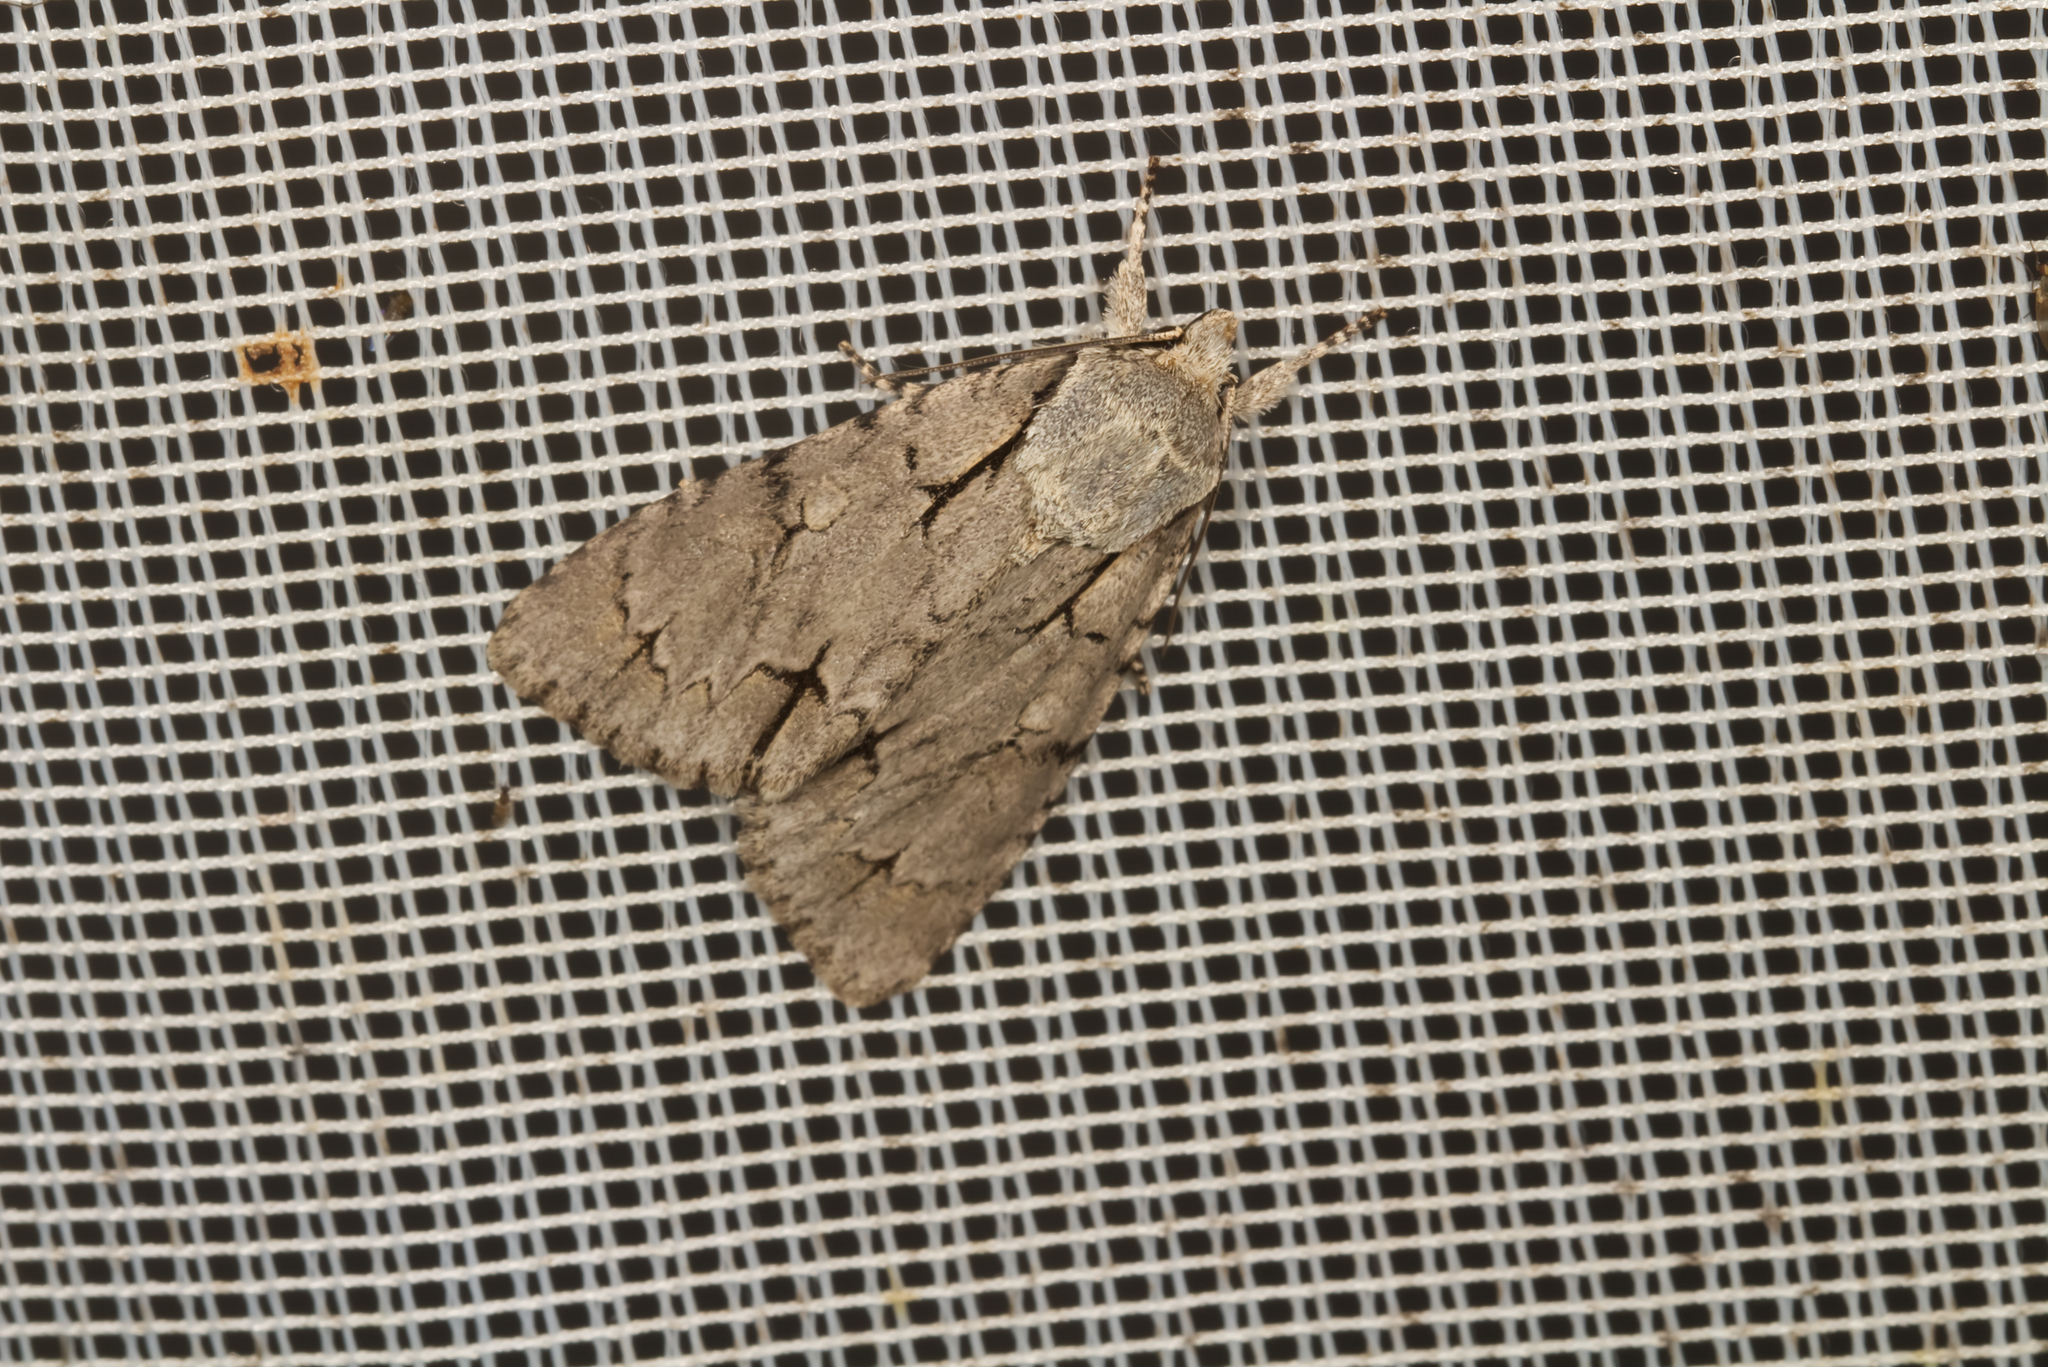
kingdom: Animalia
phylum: Arthropoda
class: Insecta
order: Lepidoptera
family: Noctuidae
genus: Acronicta
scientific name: Acronicta
